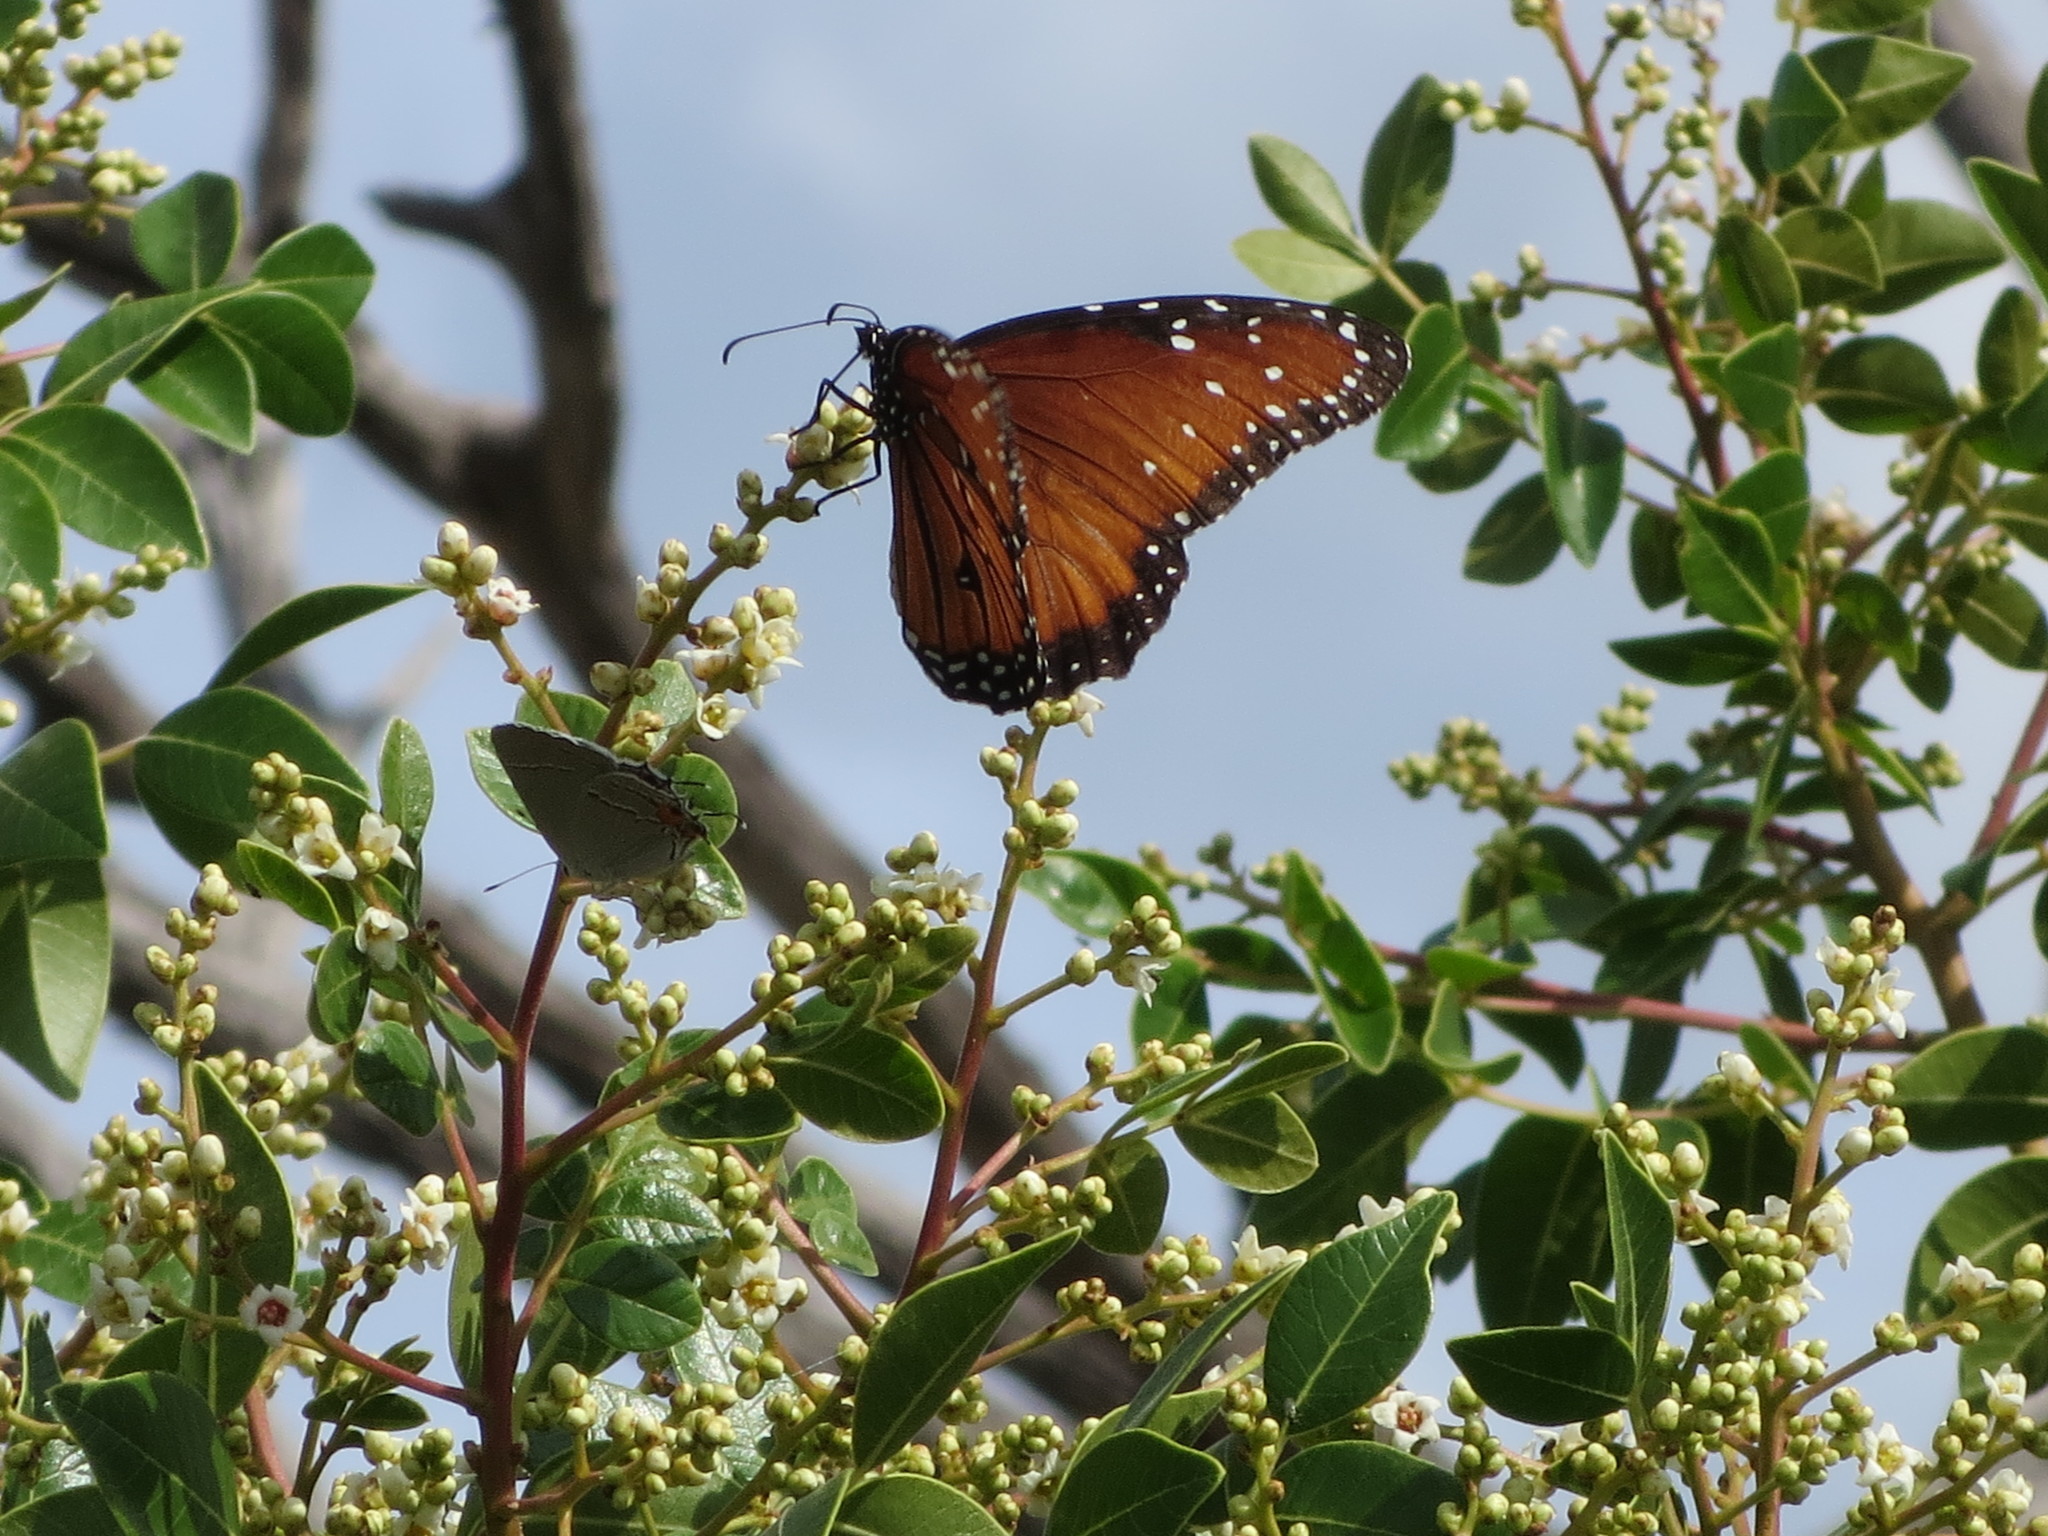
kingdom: Animalia
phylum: Arthropoda
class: Insecta
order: Lepidoptera
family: Nymphalidae
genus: Danaus
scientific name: Danaus gilippus
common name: Queen
